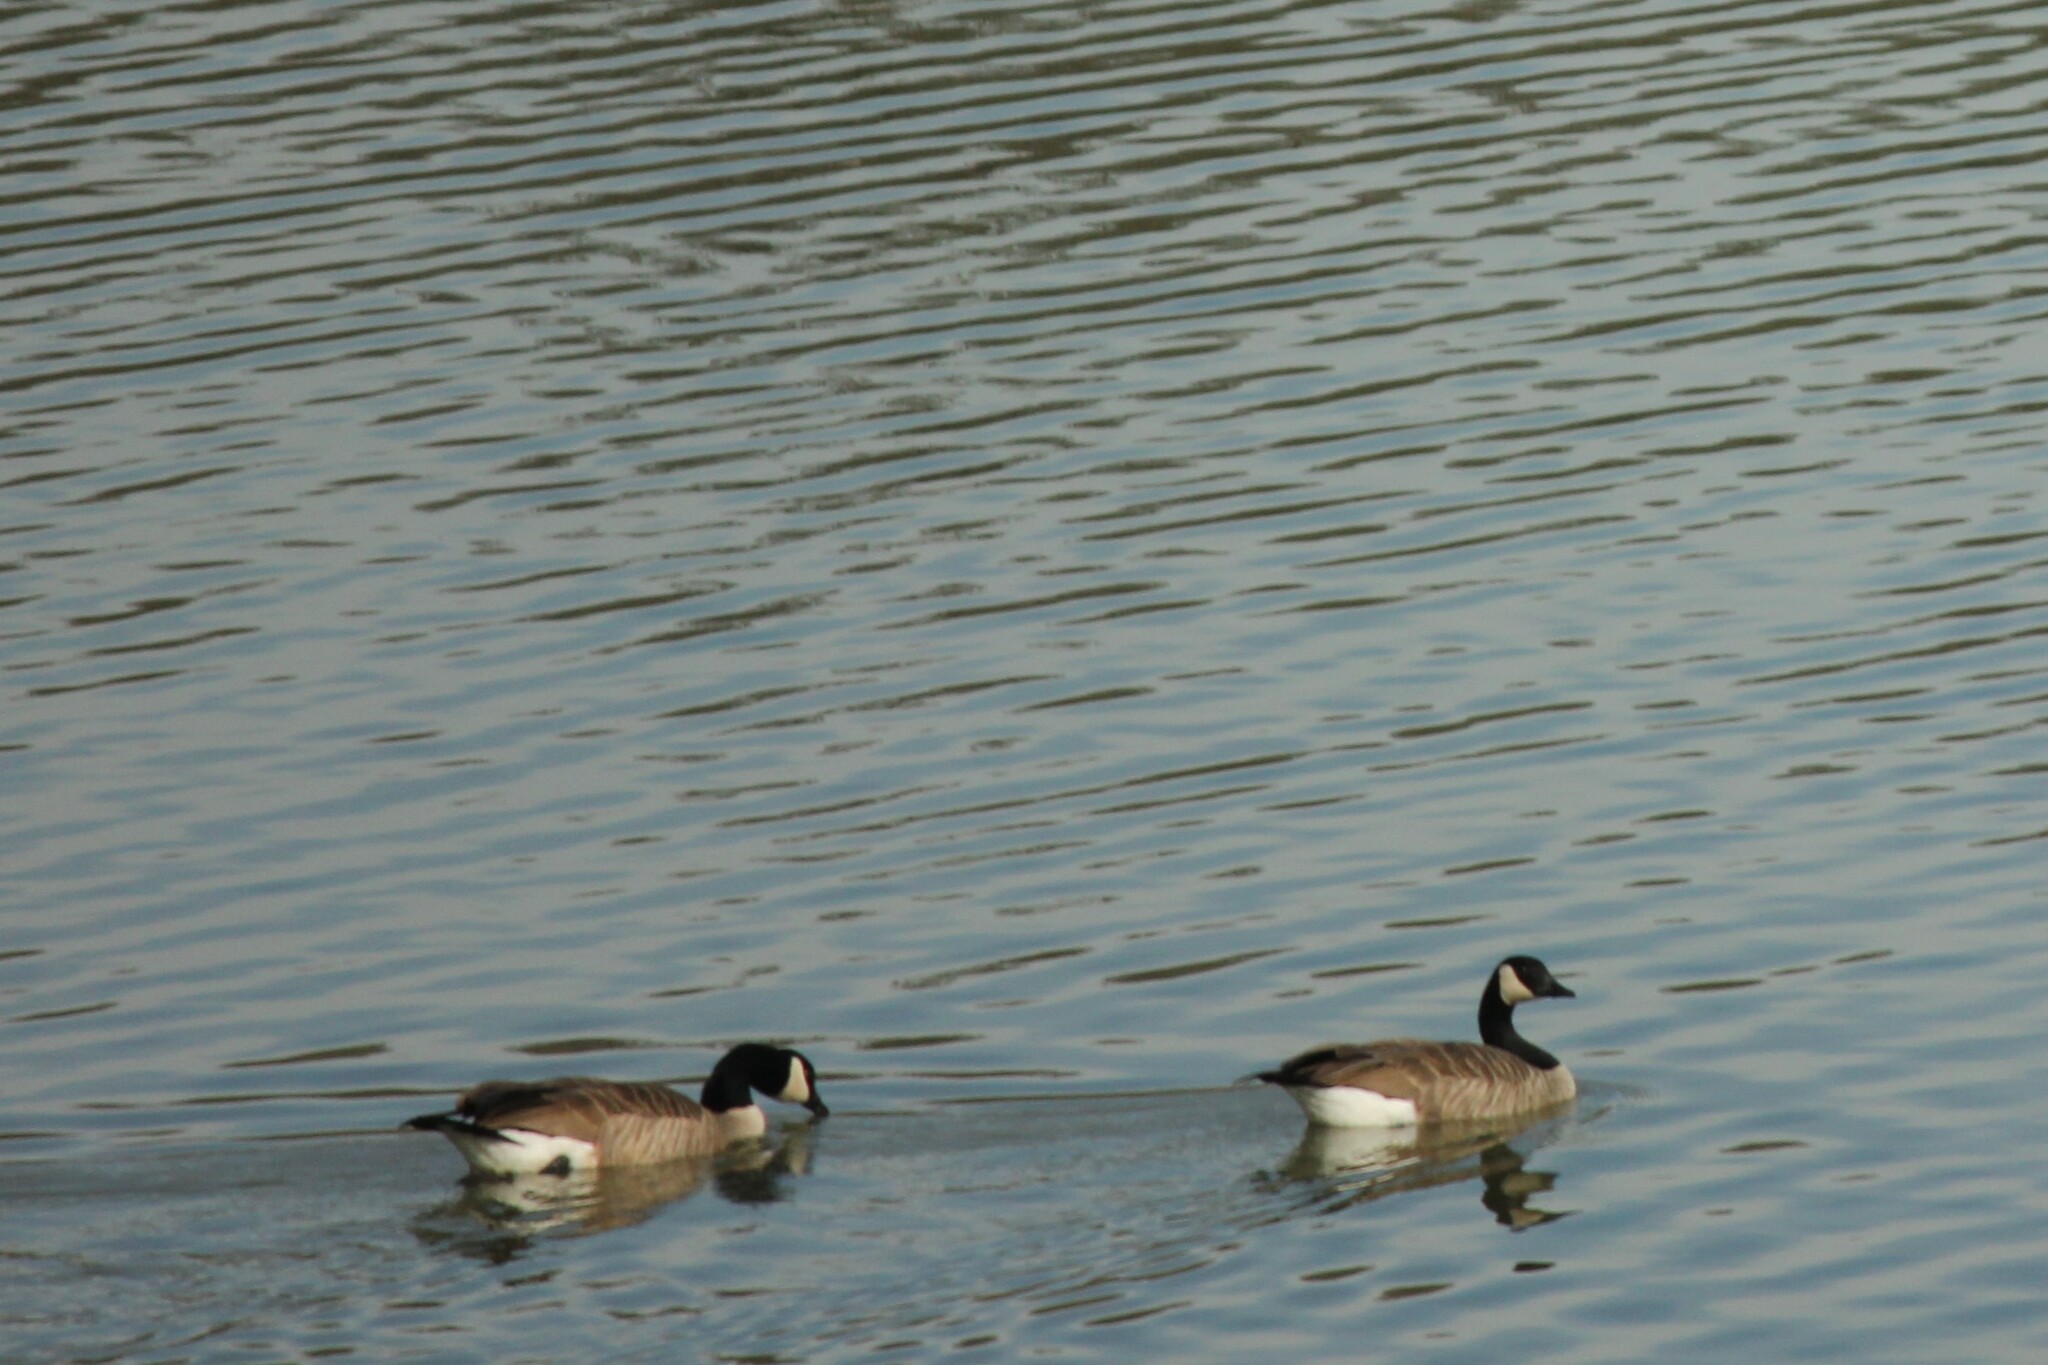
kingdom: Animalia
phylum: Chordata
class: Aves
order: Anseriformes
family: Anatidae
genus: Branta
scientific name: Branta canadensis
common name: Canada goose
